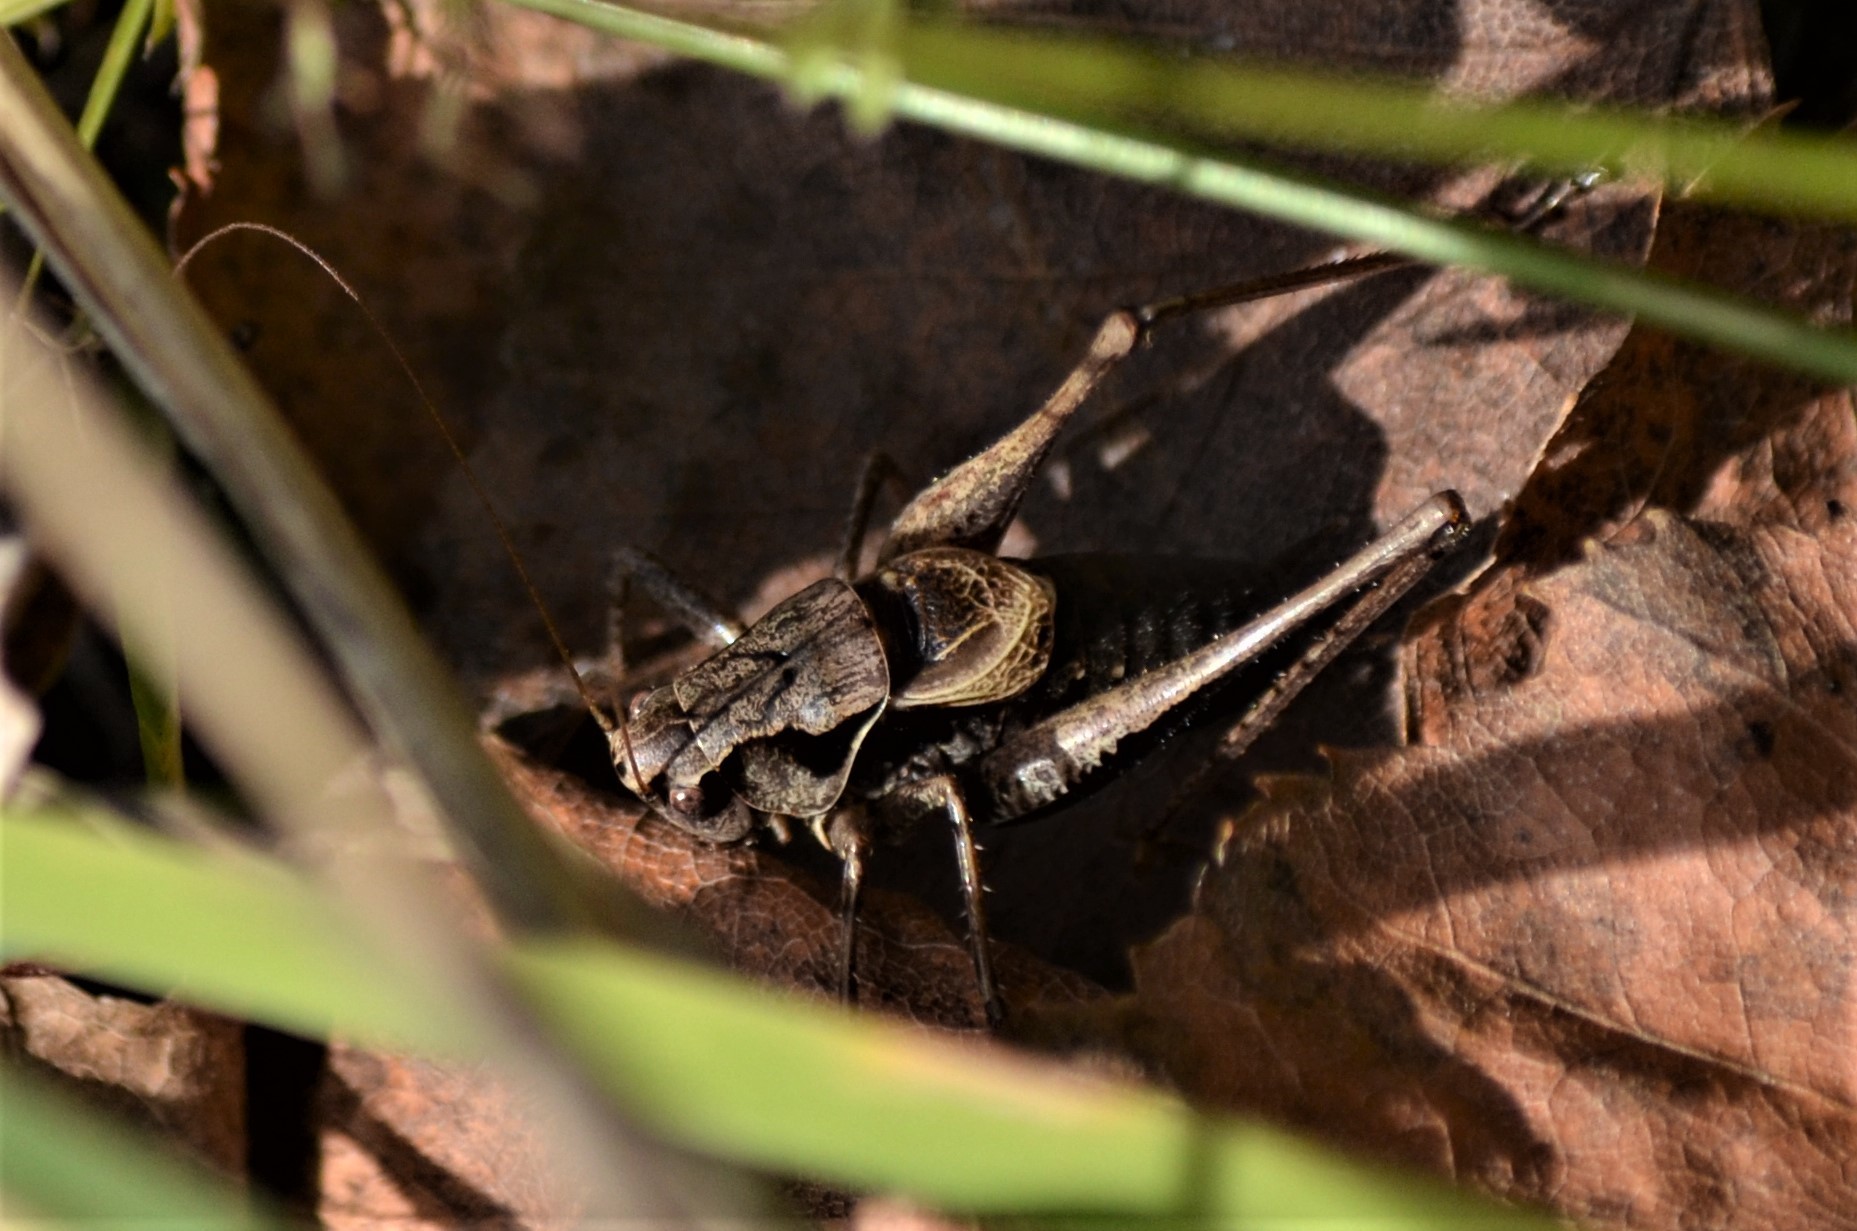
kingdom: Animalia
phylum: Arthropoda
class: Insecta
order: Orthoptera
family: Tettigoniidae
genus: Pholidoptera
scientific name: Pholidoptera griseoaptera
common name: Dark bush-cricket
